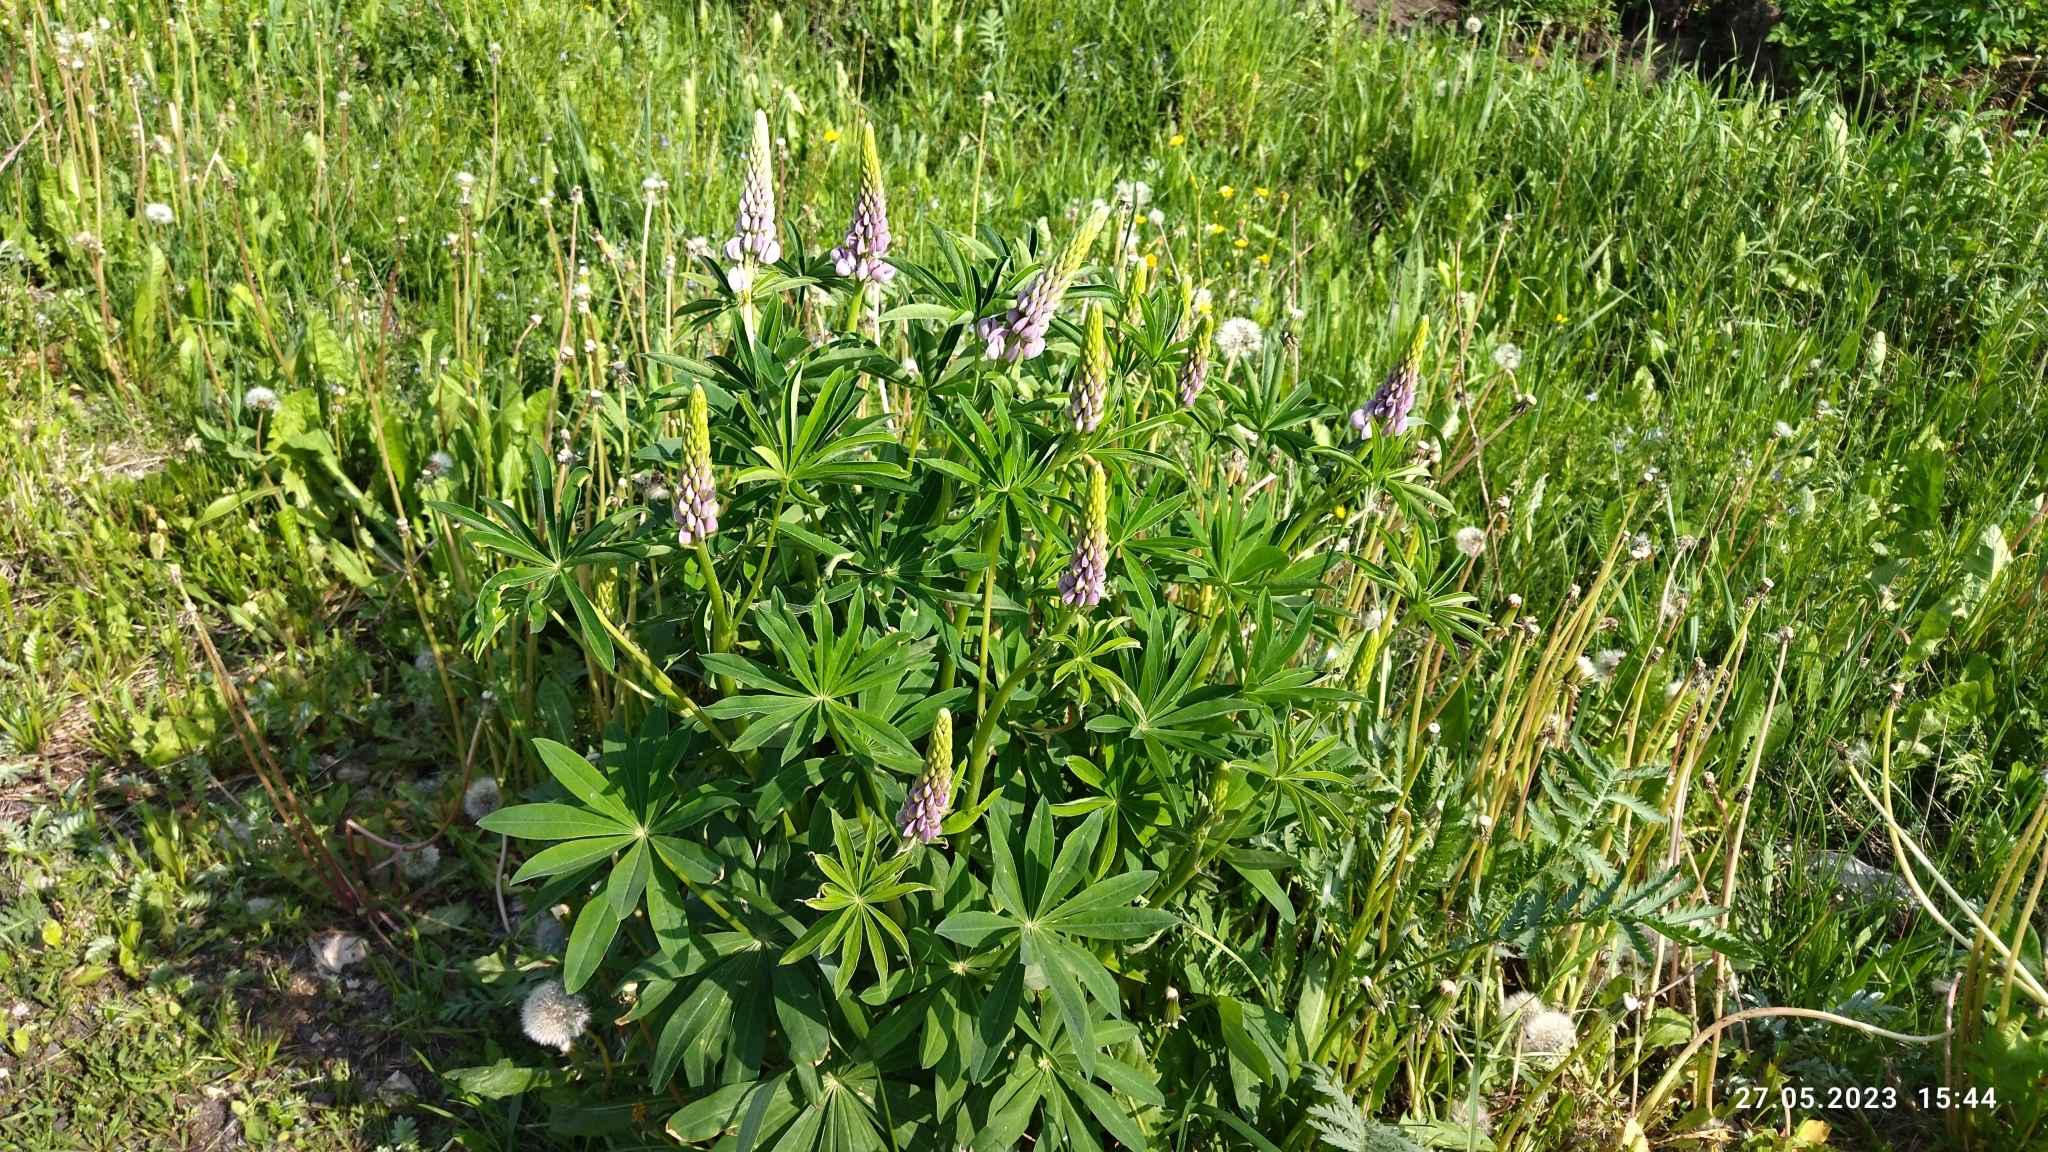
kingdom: Plantae
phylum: Tracheophyta
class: Magnoliopsida
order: Fabales
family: Fabaceae
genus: Lupinus
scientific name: Lupinus polyphyllus
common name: Garden lupin
